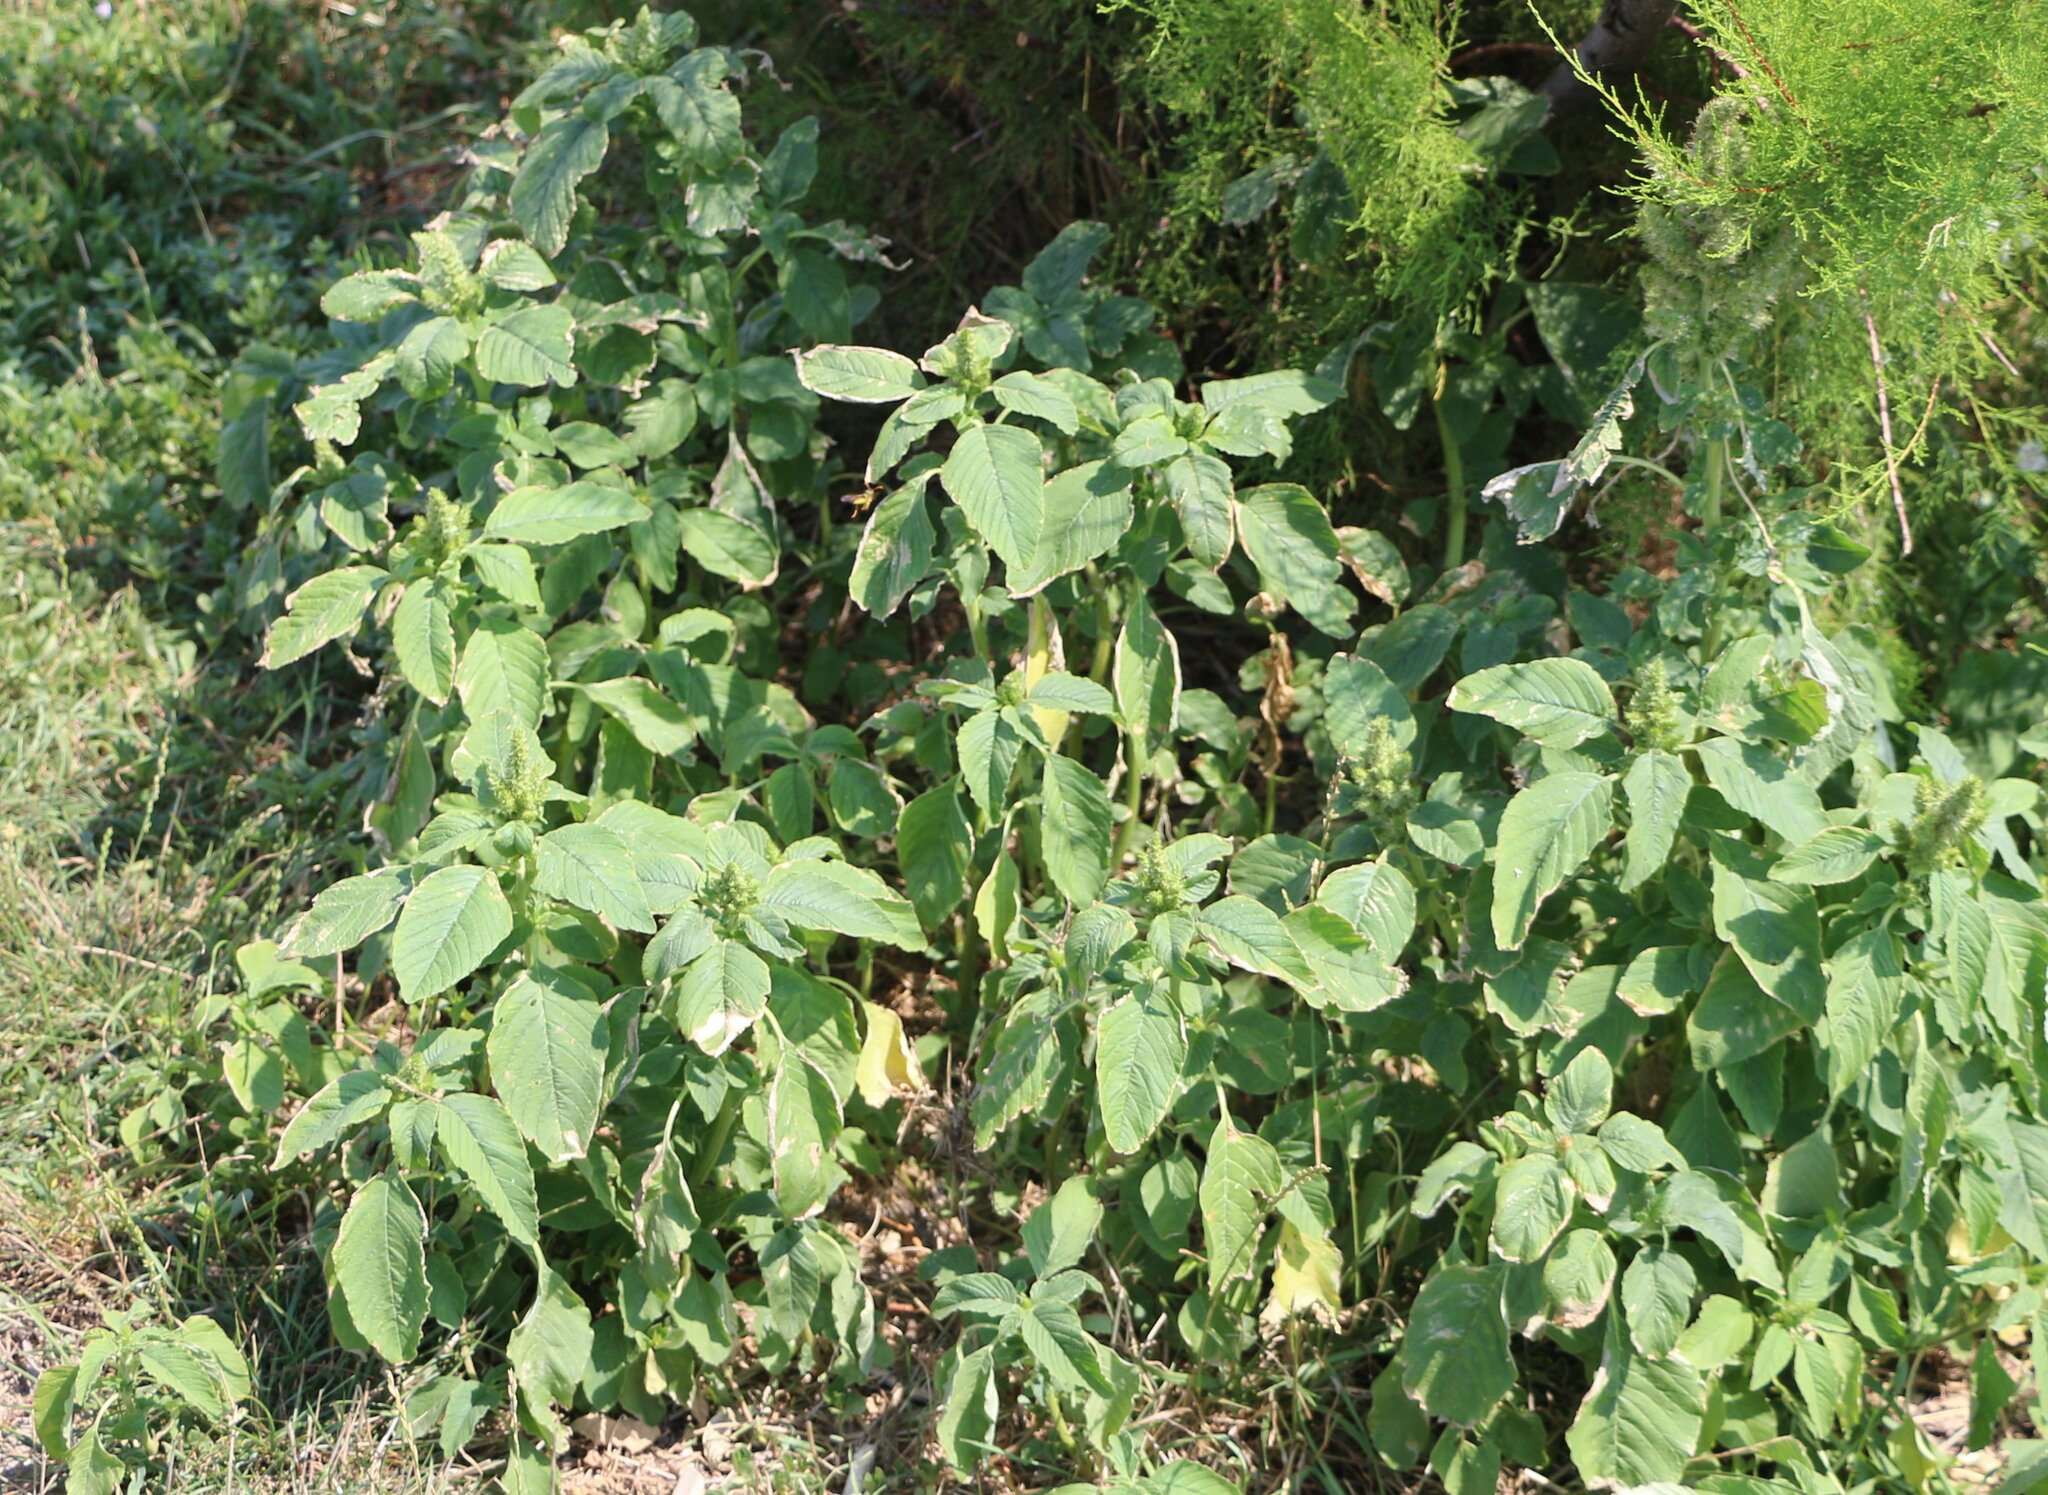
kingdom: Plantae
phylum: Tracheophyta
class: Magnoliopsida
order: Caryophyllales
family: Amaranthaceae
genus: Amaranthus
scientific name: Amaranthus retroflexus
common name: Redroot amaranth
